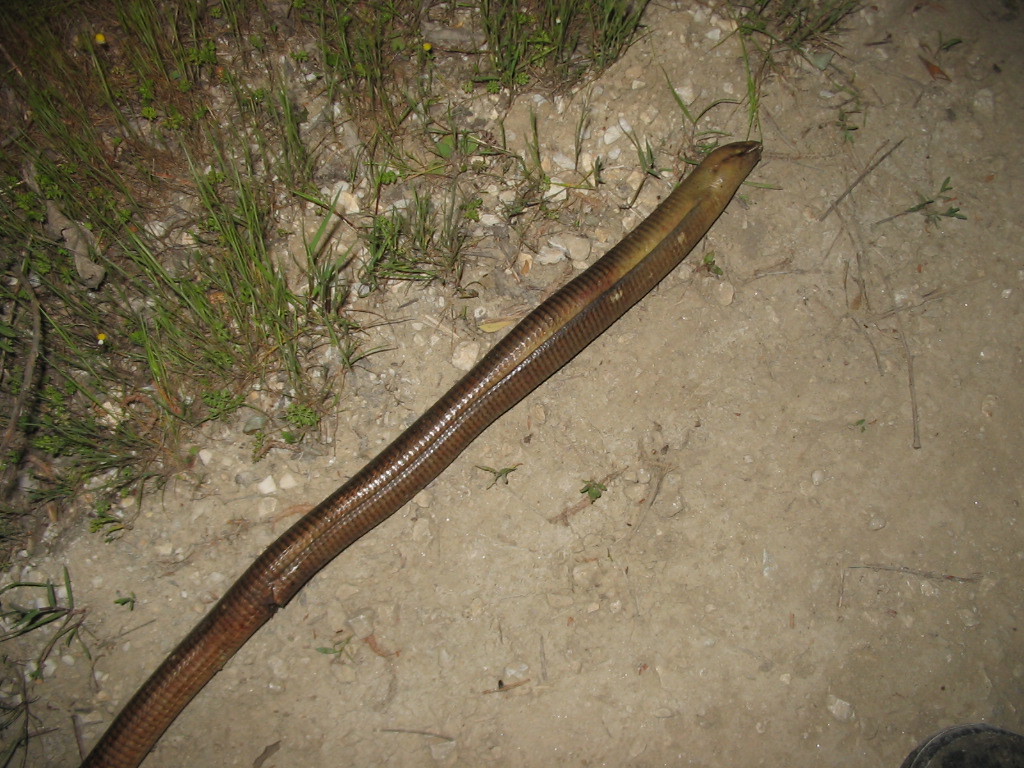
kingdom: Animalia
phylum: Chordata
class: Squamata
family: Anguidae
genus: Pseudopus
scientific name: Pseudopus apodus
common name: European glass lizard
